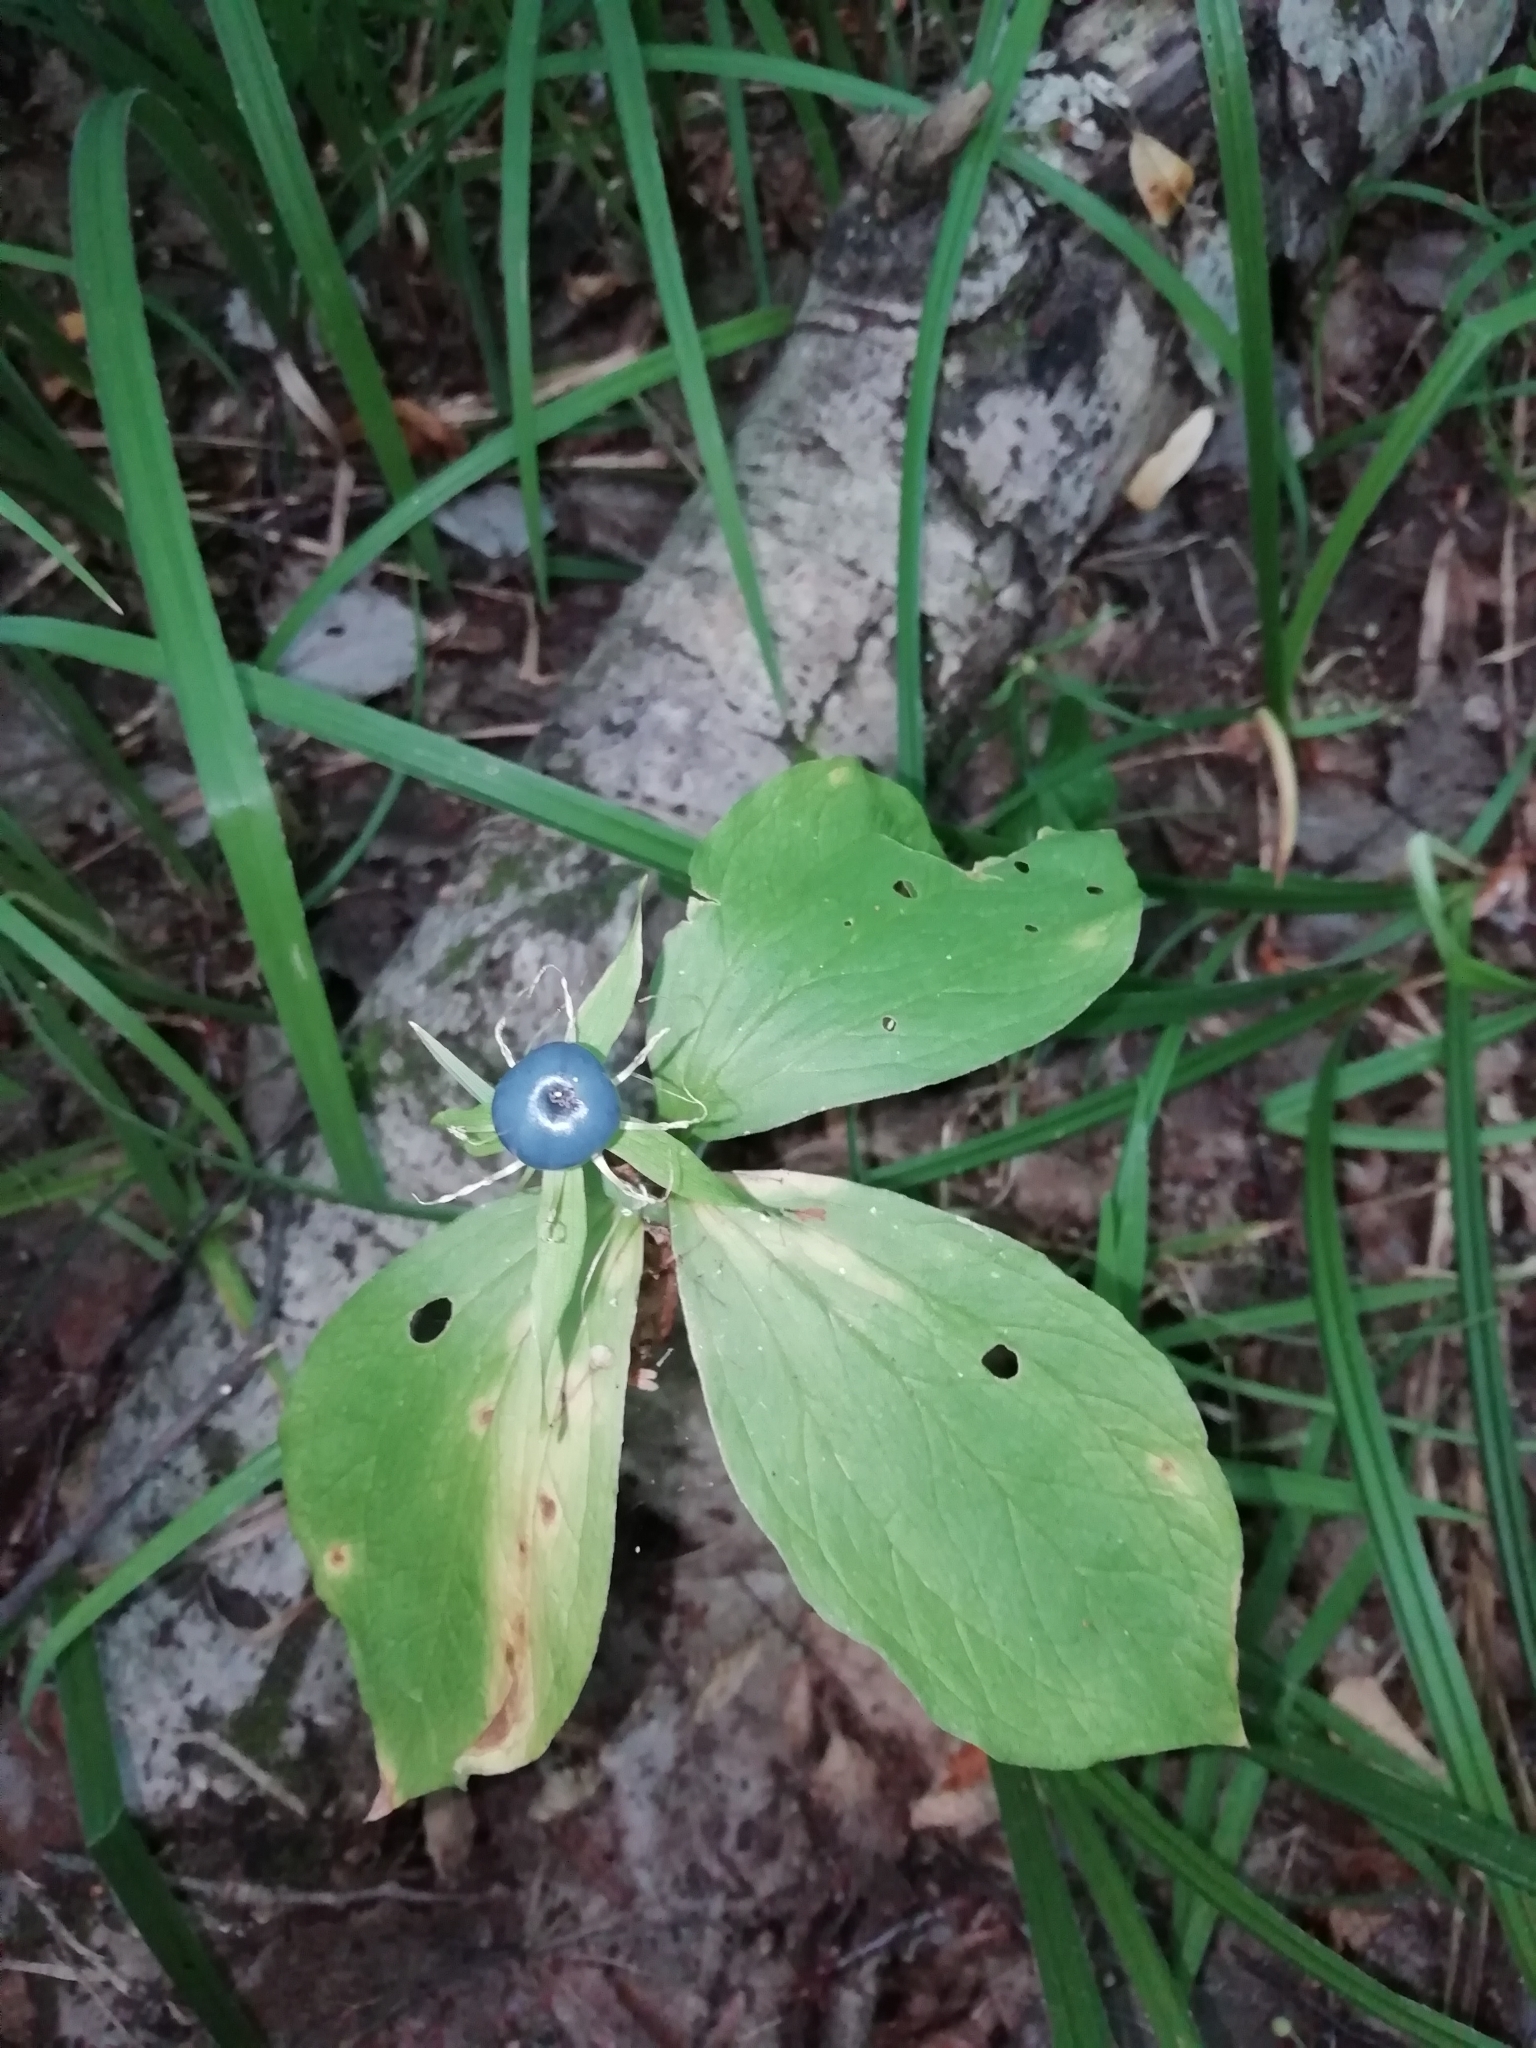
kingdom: Plantae
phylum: Tracheophyta
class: Liliopsida
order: Liliales
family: Melanthiaceae
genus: Paris
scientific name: Paris quadrifolia
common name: Herb-paris
